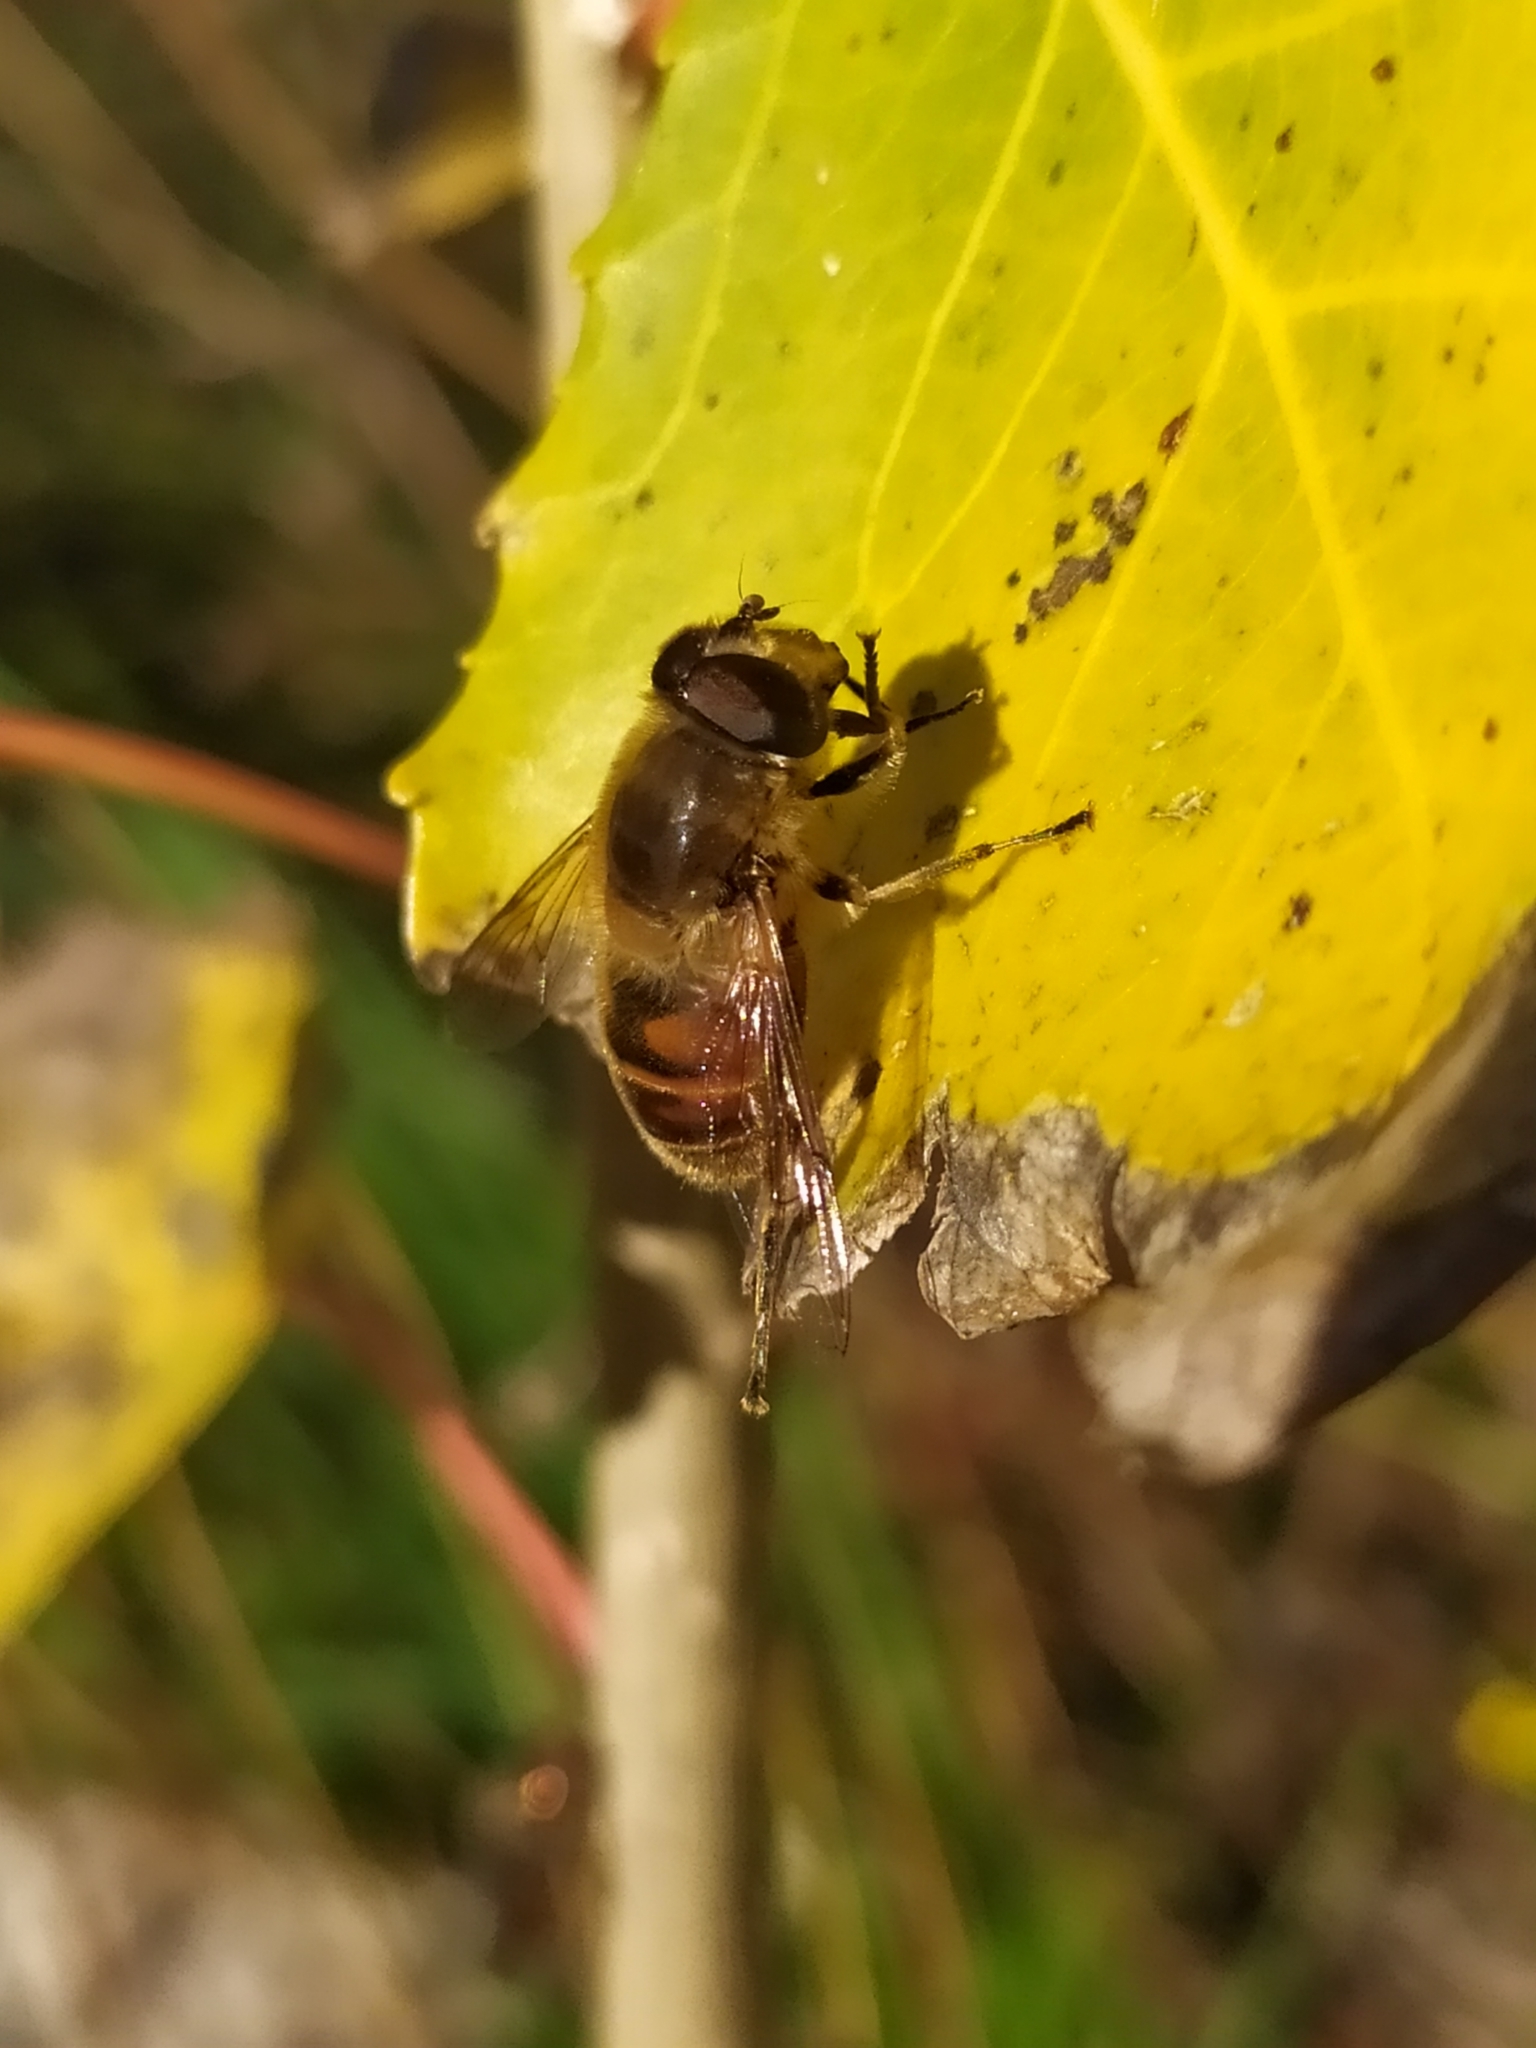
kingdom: Animalia
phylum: Arthropoda
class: Insecta
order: Diptera
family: Syrphidae
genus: Eristalis
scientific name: Eristalis tenax
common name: Drone fly
